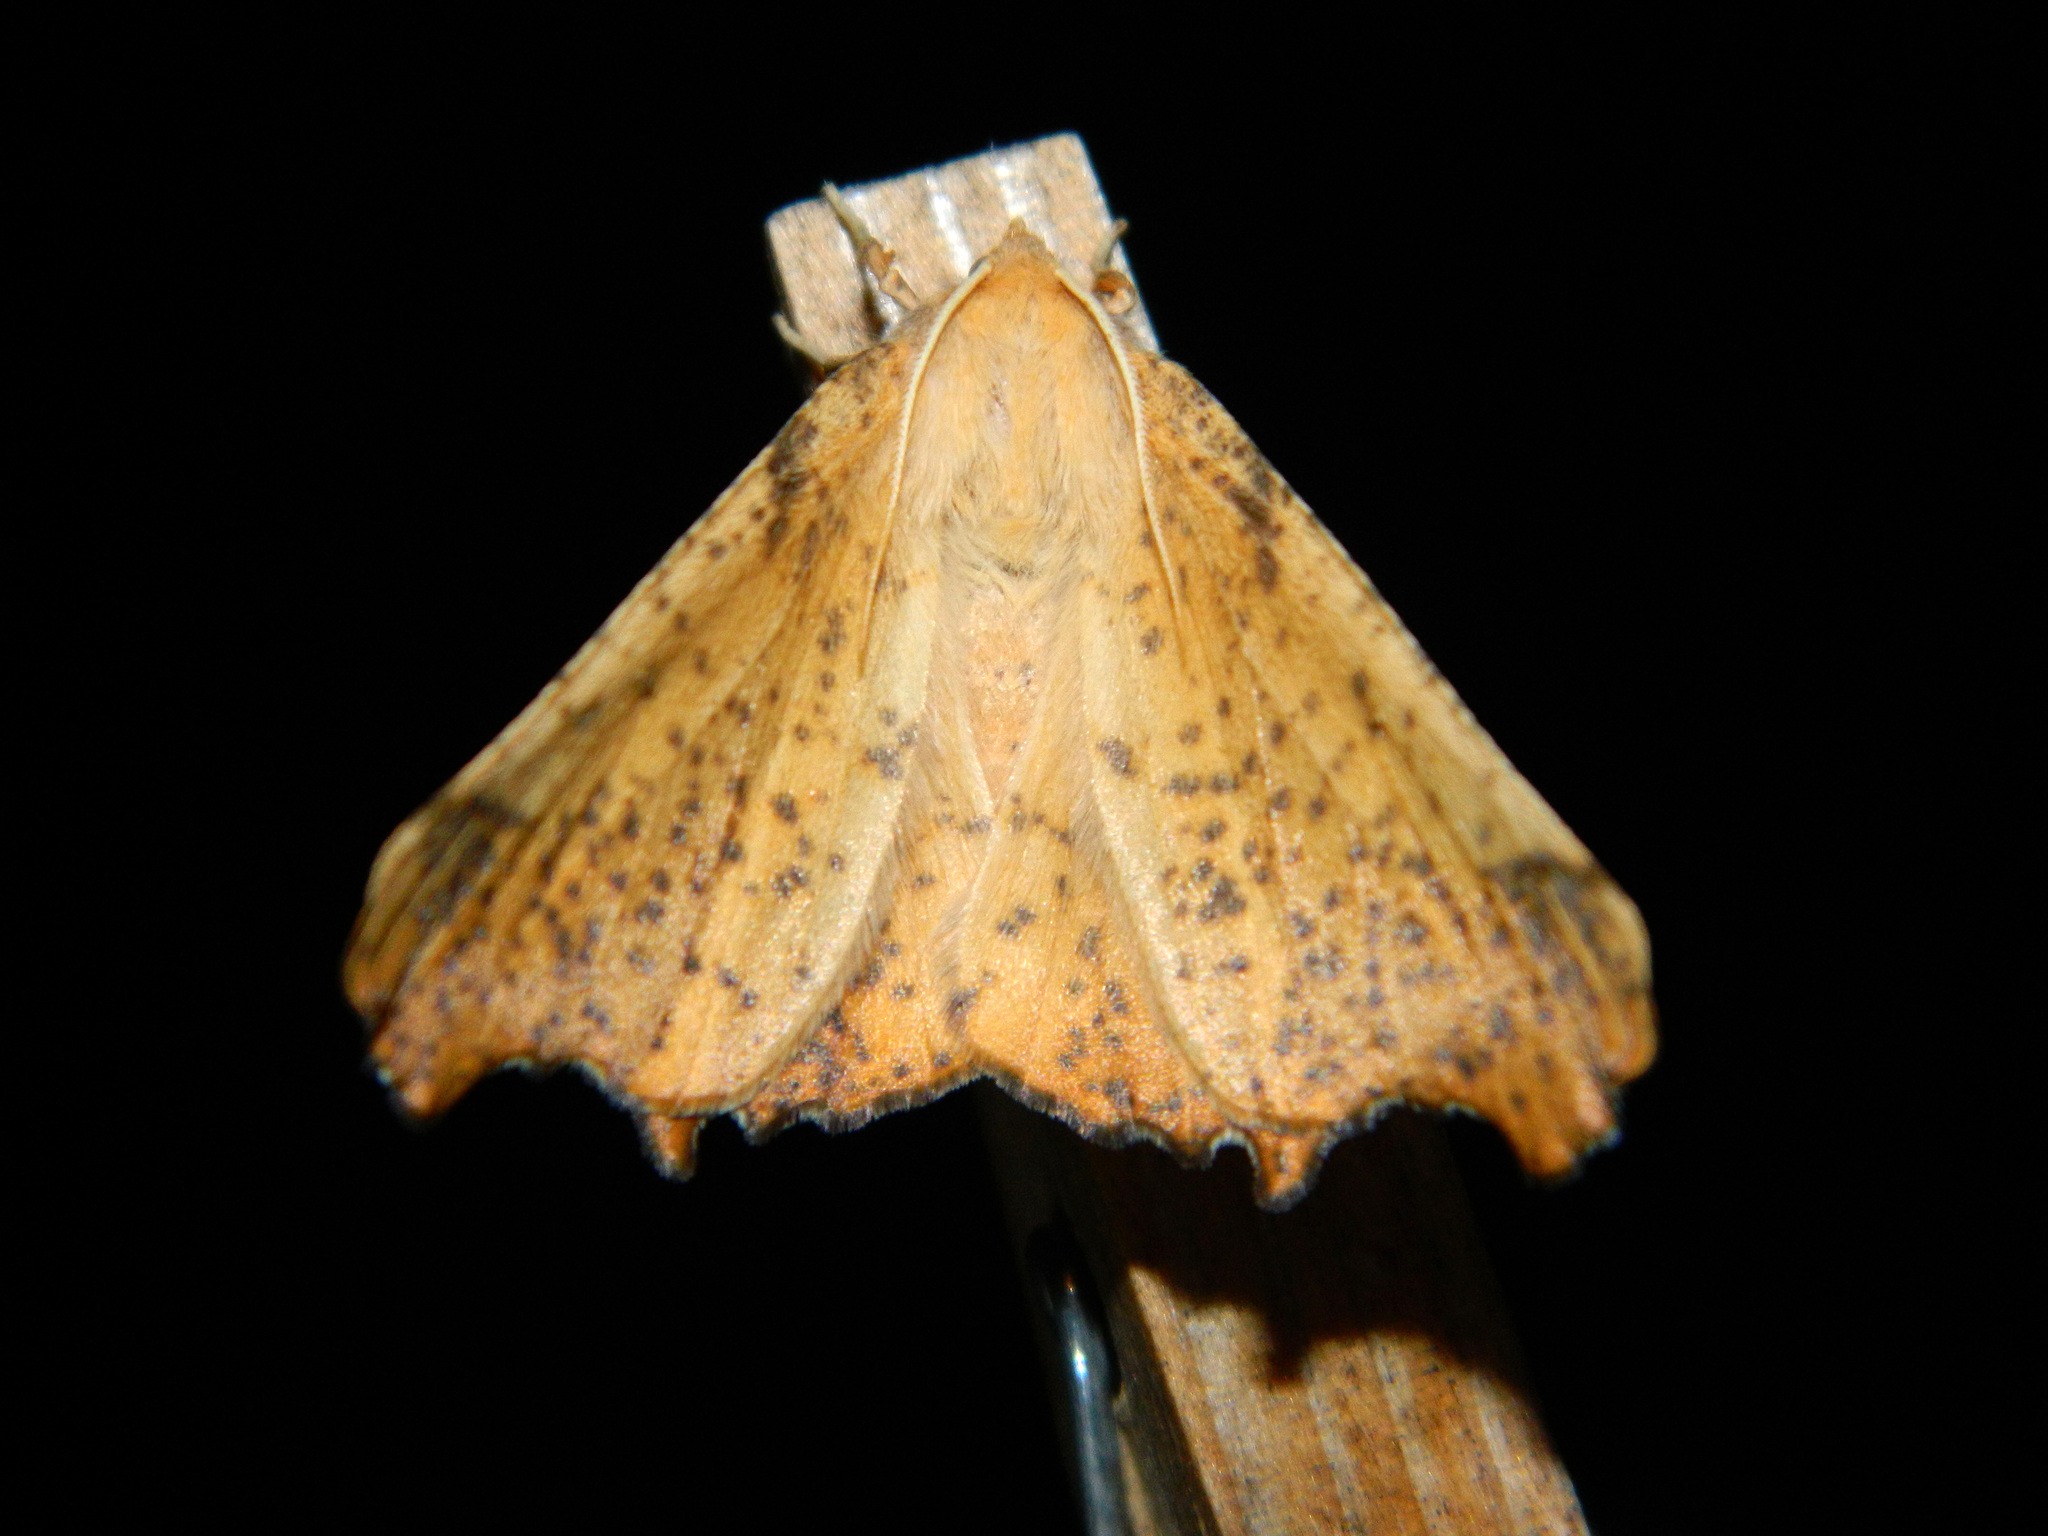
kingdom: Animalia
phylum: Arthropoda
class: Insecta
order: Lepidoptera
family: Geometridae
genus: Ennomos
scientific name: Ennomos magnaria
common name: Maple spanworm
